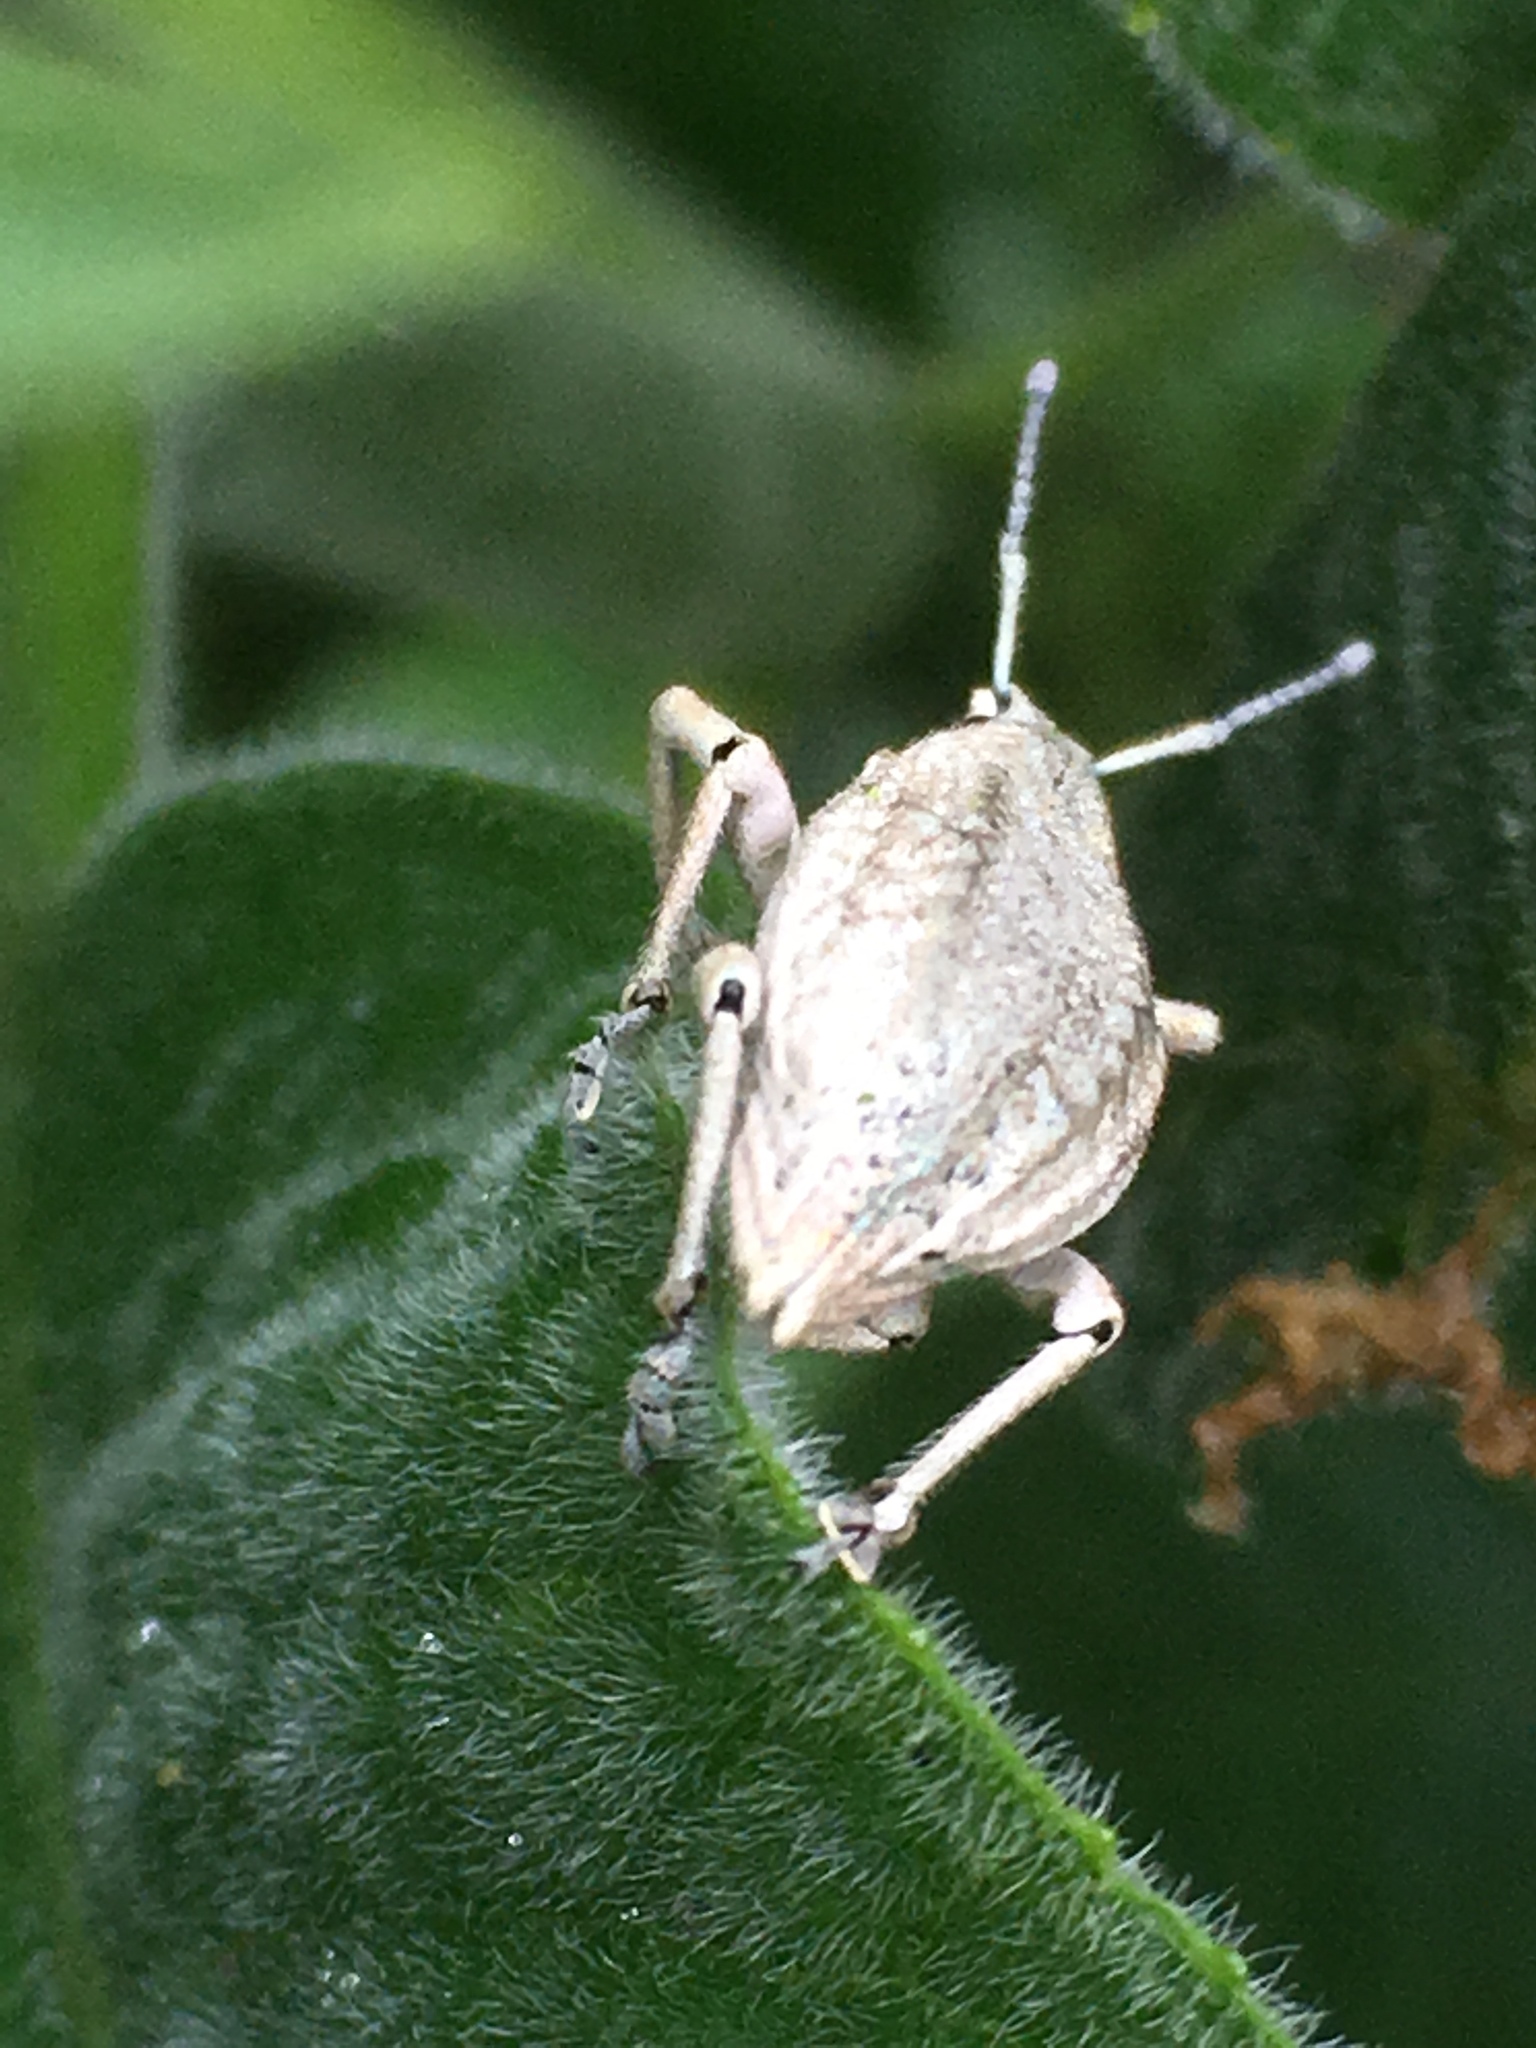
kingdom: Animalia
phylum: Arthropoda
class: Insecta
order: Coleoptera
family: Curculionidae
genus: Compsus
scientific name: Compsus canescens
